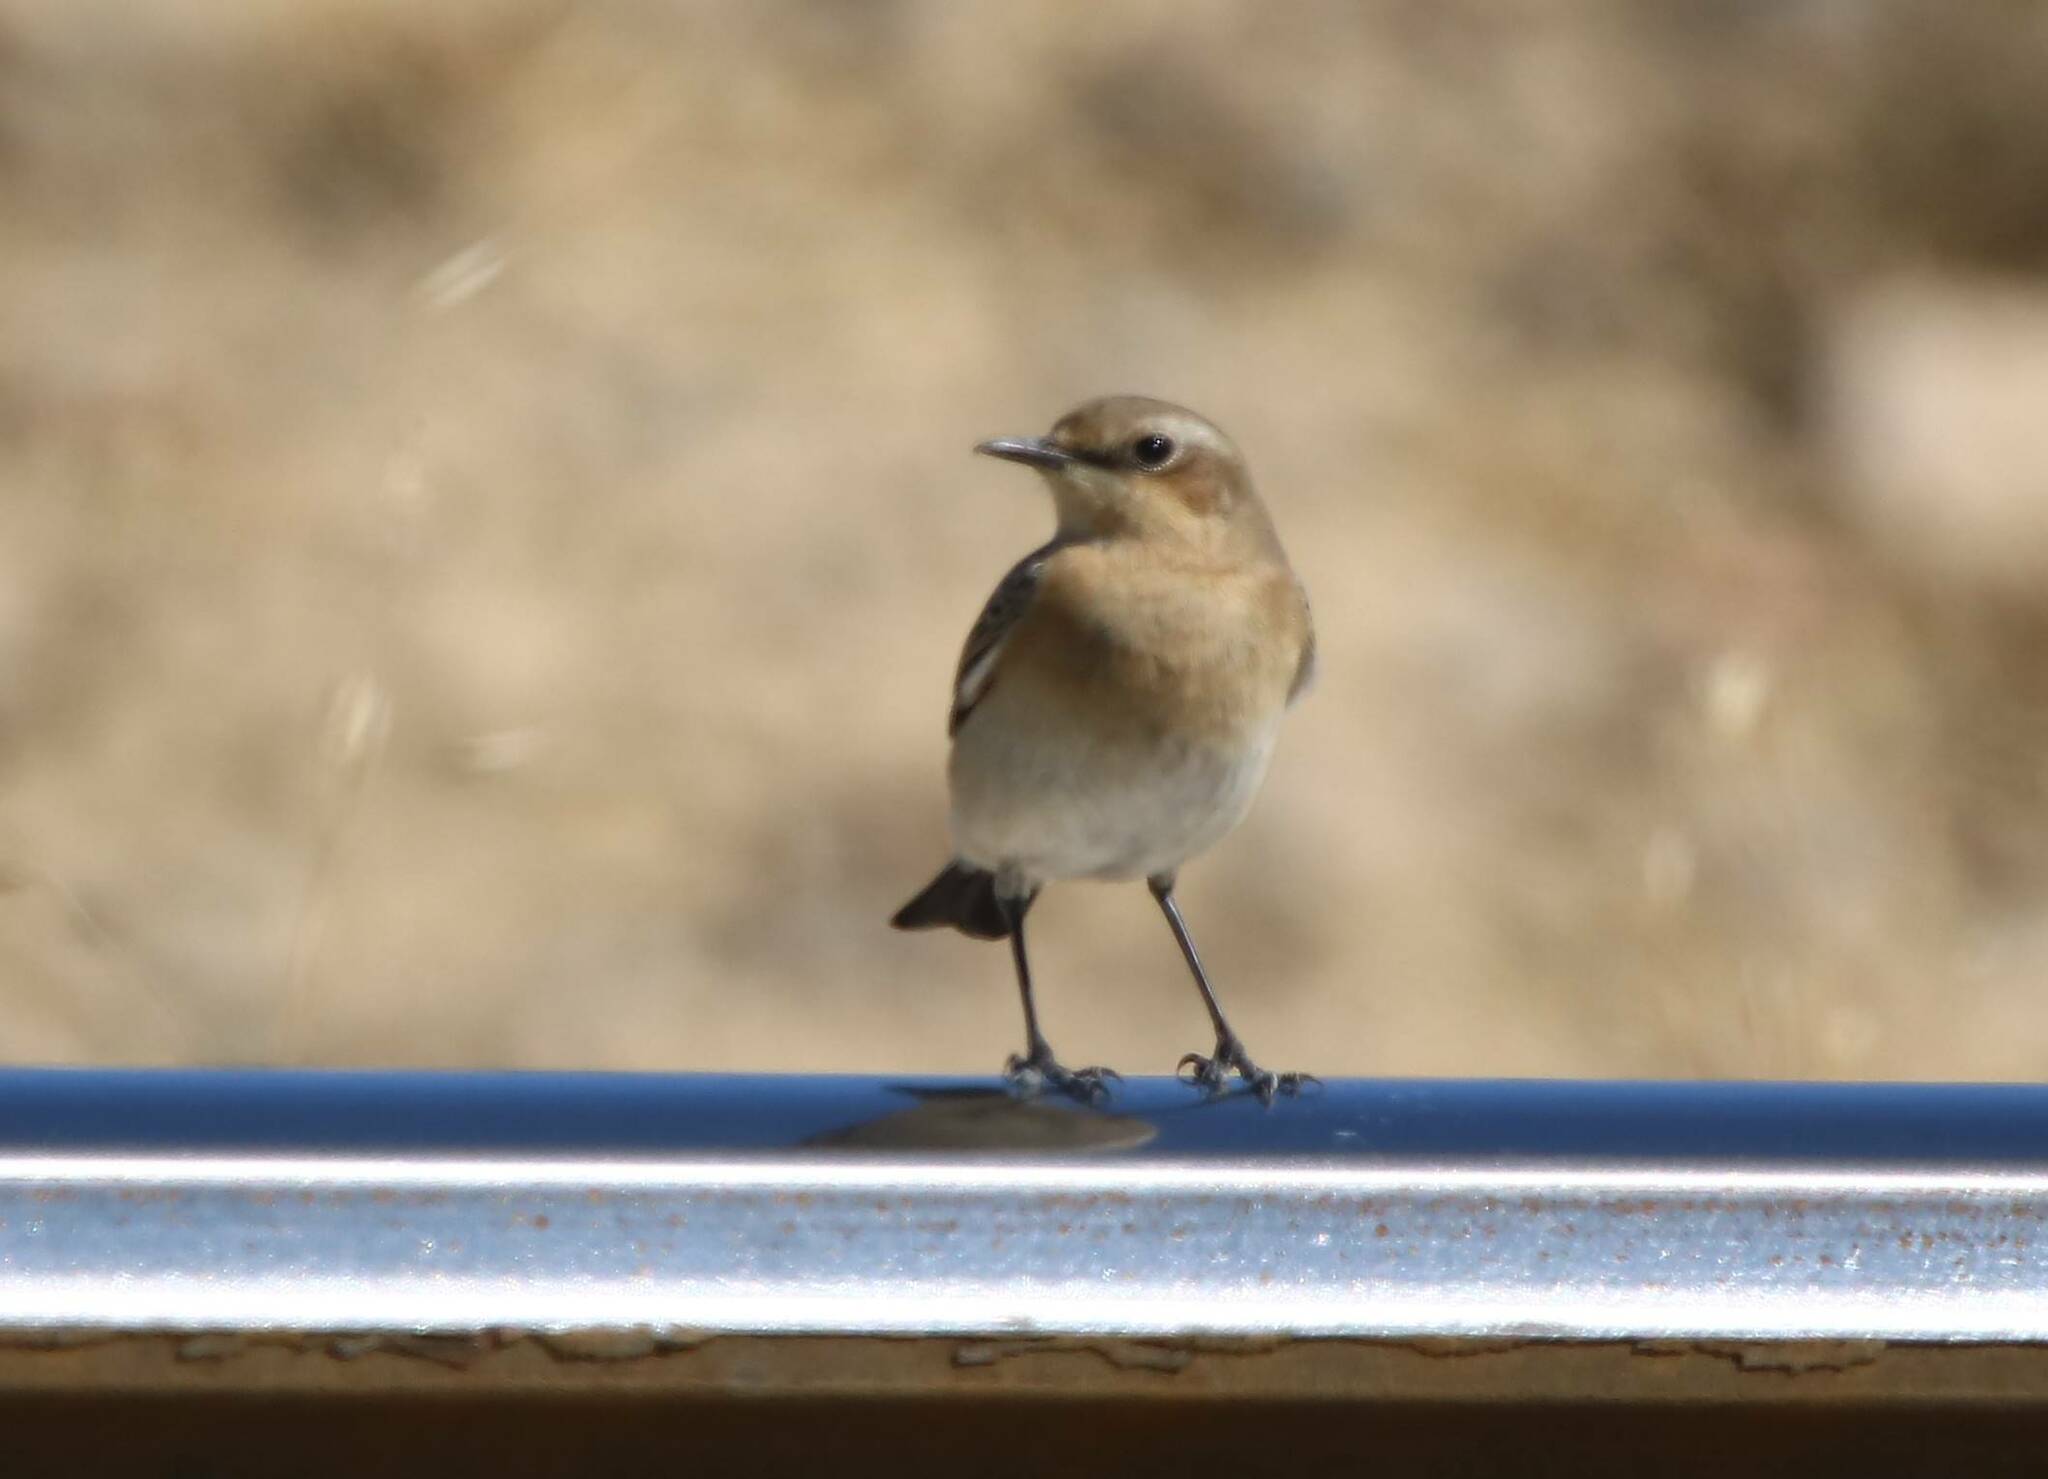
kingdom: Animalia
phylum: Chordata
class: Aves
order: Passeriformes
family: Muscicapidae
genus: Oenanthe
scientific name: Oenanthe oenanthe
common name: Northern wheatear
